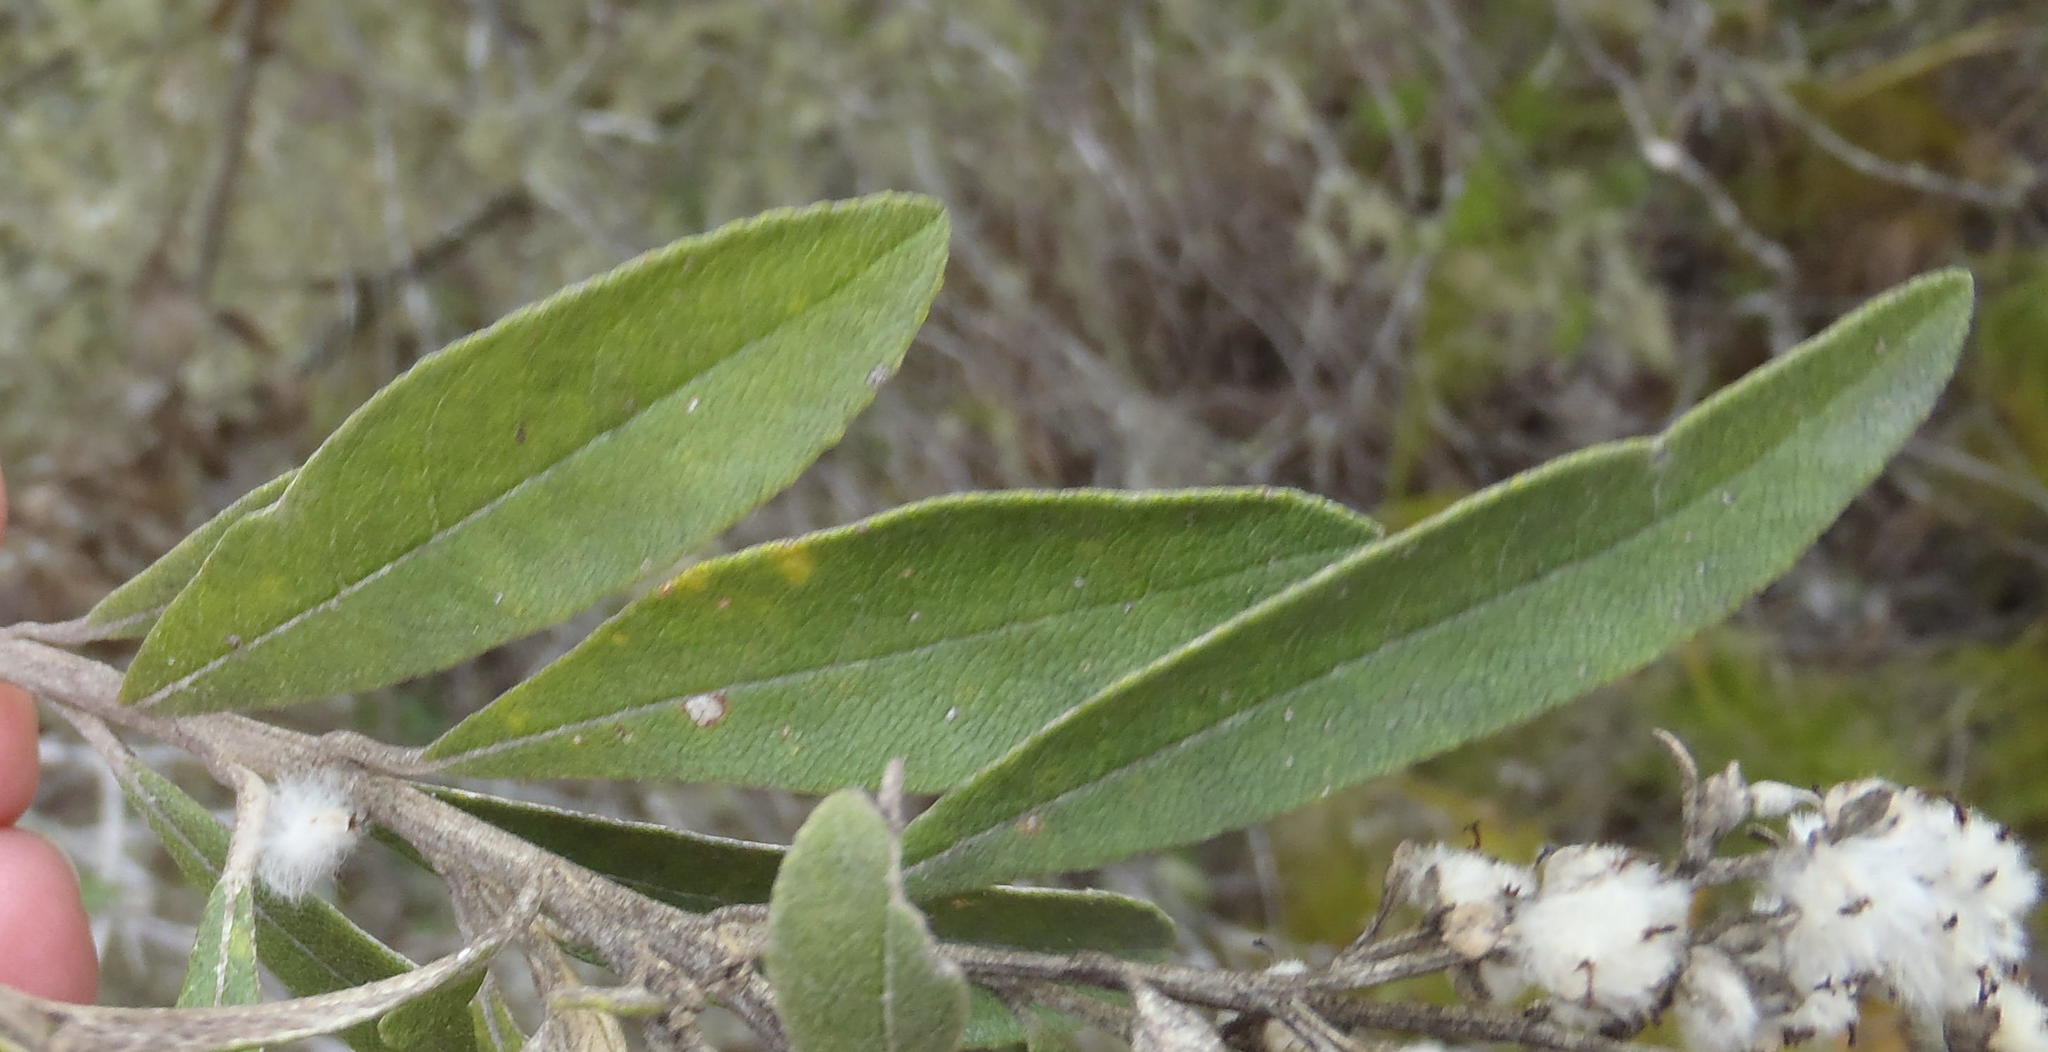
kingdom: Plantae
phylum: Tracheophyta
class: Magnoliopsida
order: Asterales
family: Asteraceae
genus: Tarchonanthus
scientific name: Tarchonanthus littoralis
